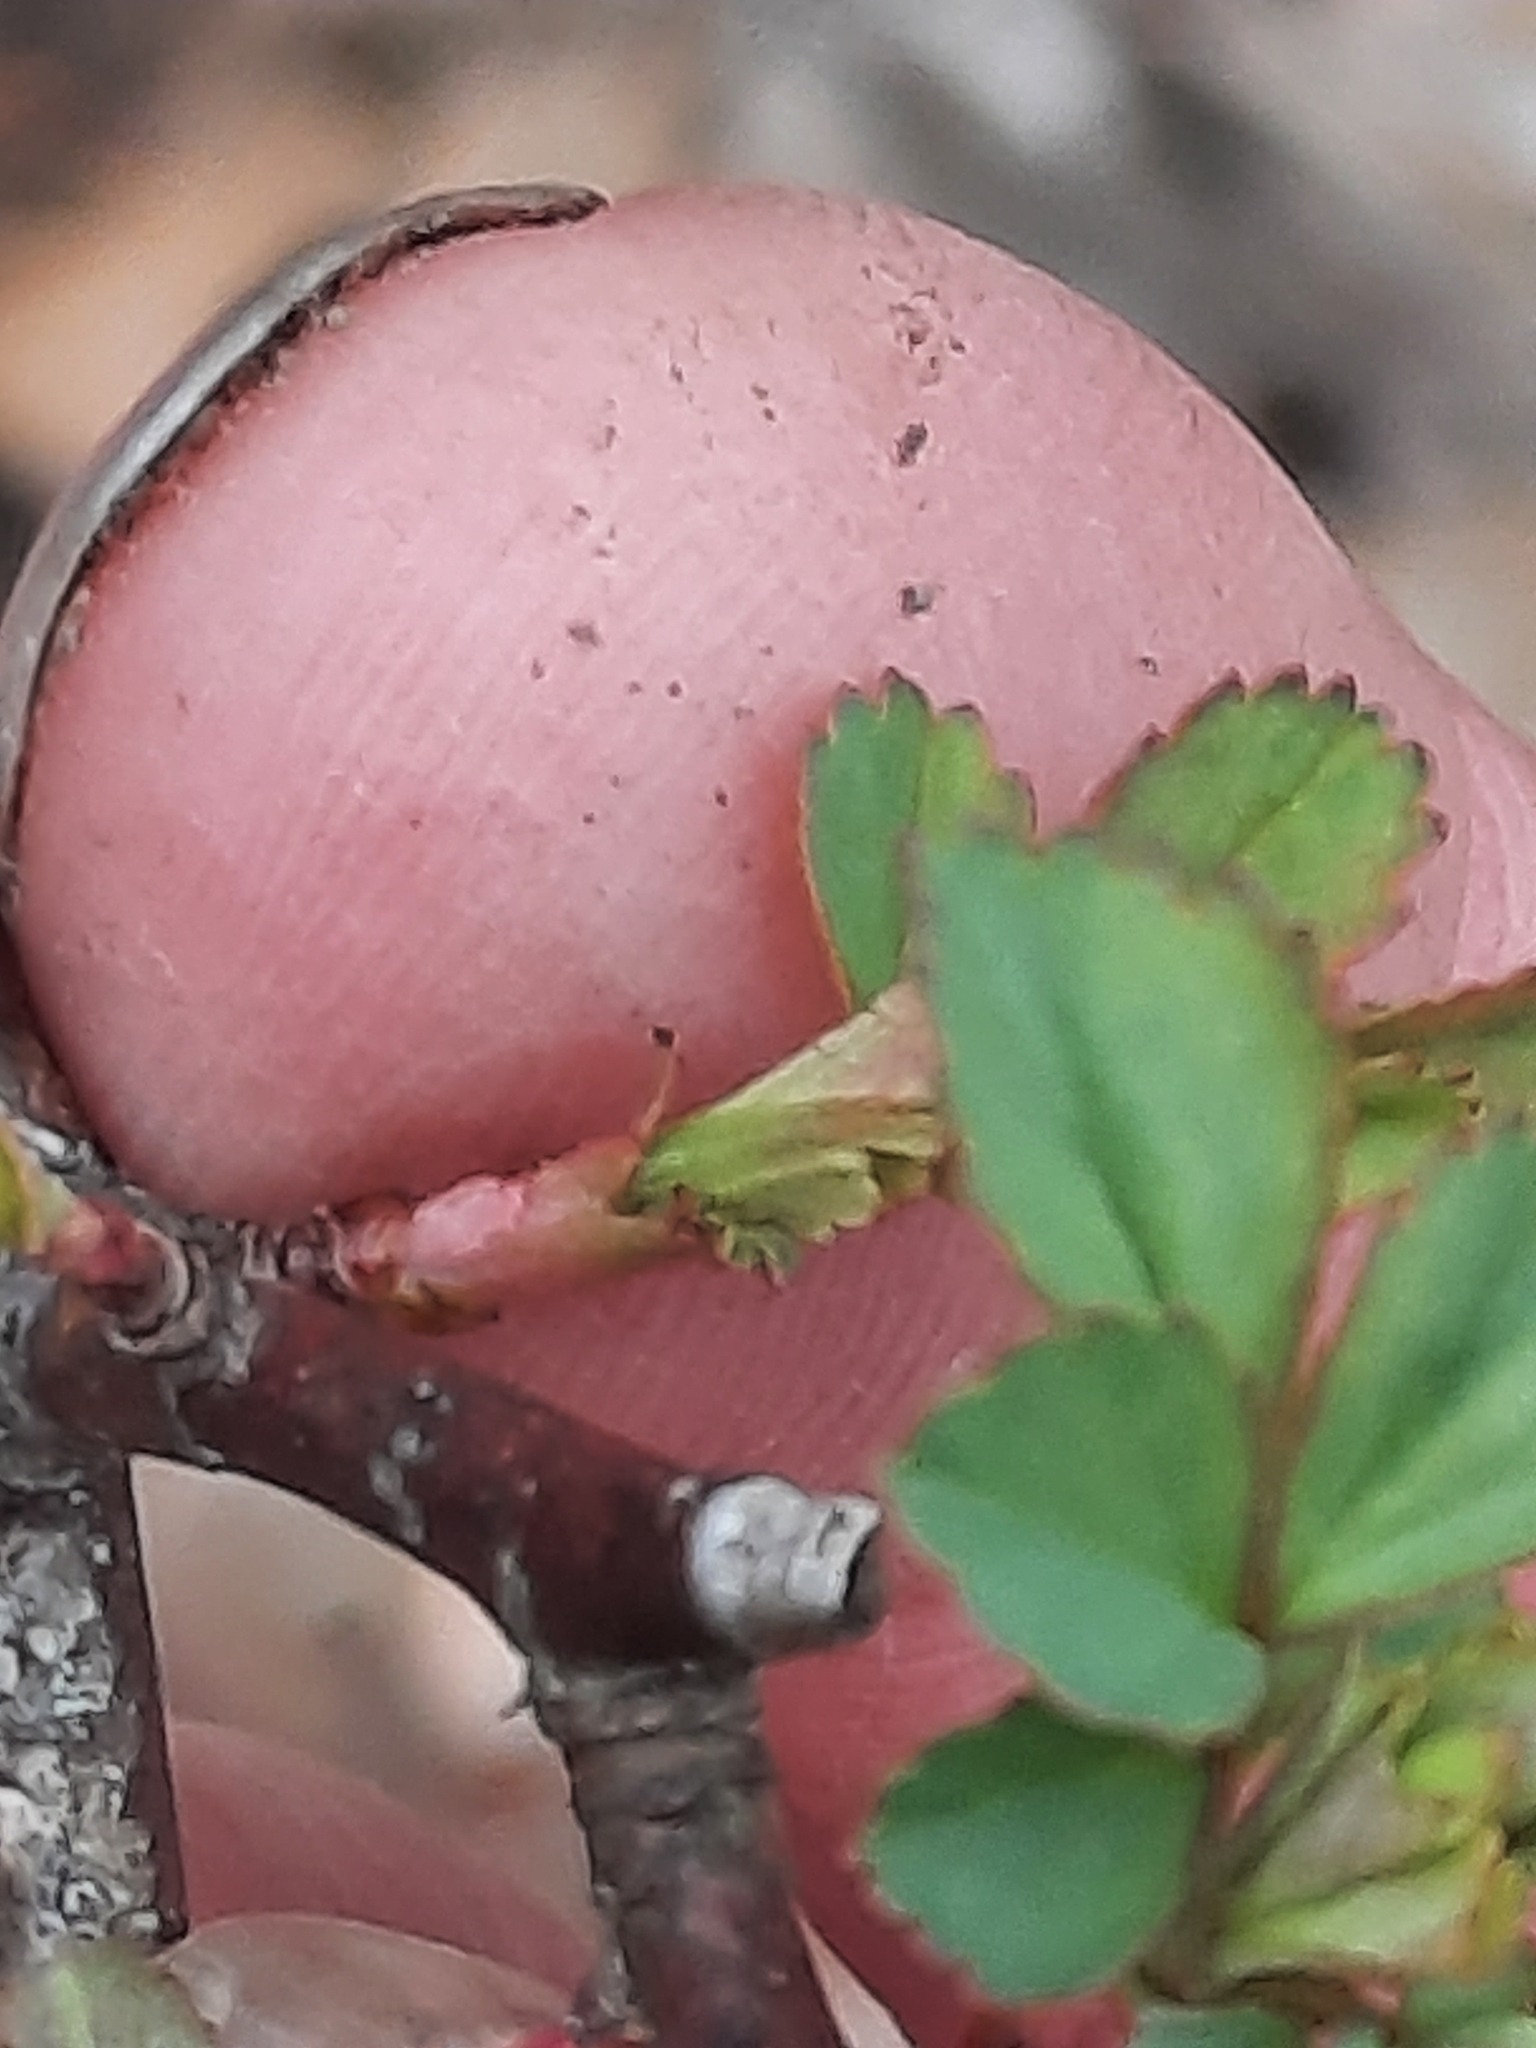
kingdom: Plantae
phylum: Tracheophyta
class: Magnoliopsida
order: Rosales
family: Rosaceae
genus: Rosa
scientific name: Rosa multiflora
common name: Multiflora rose
